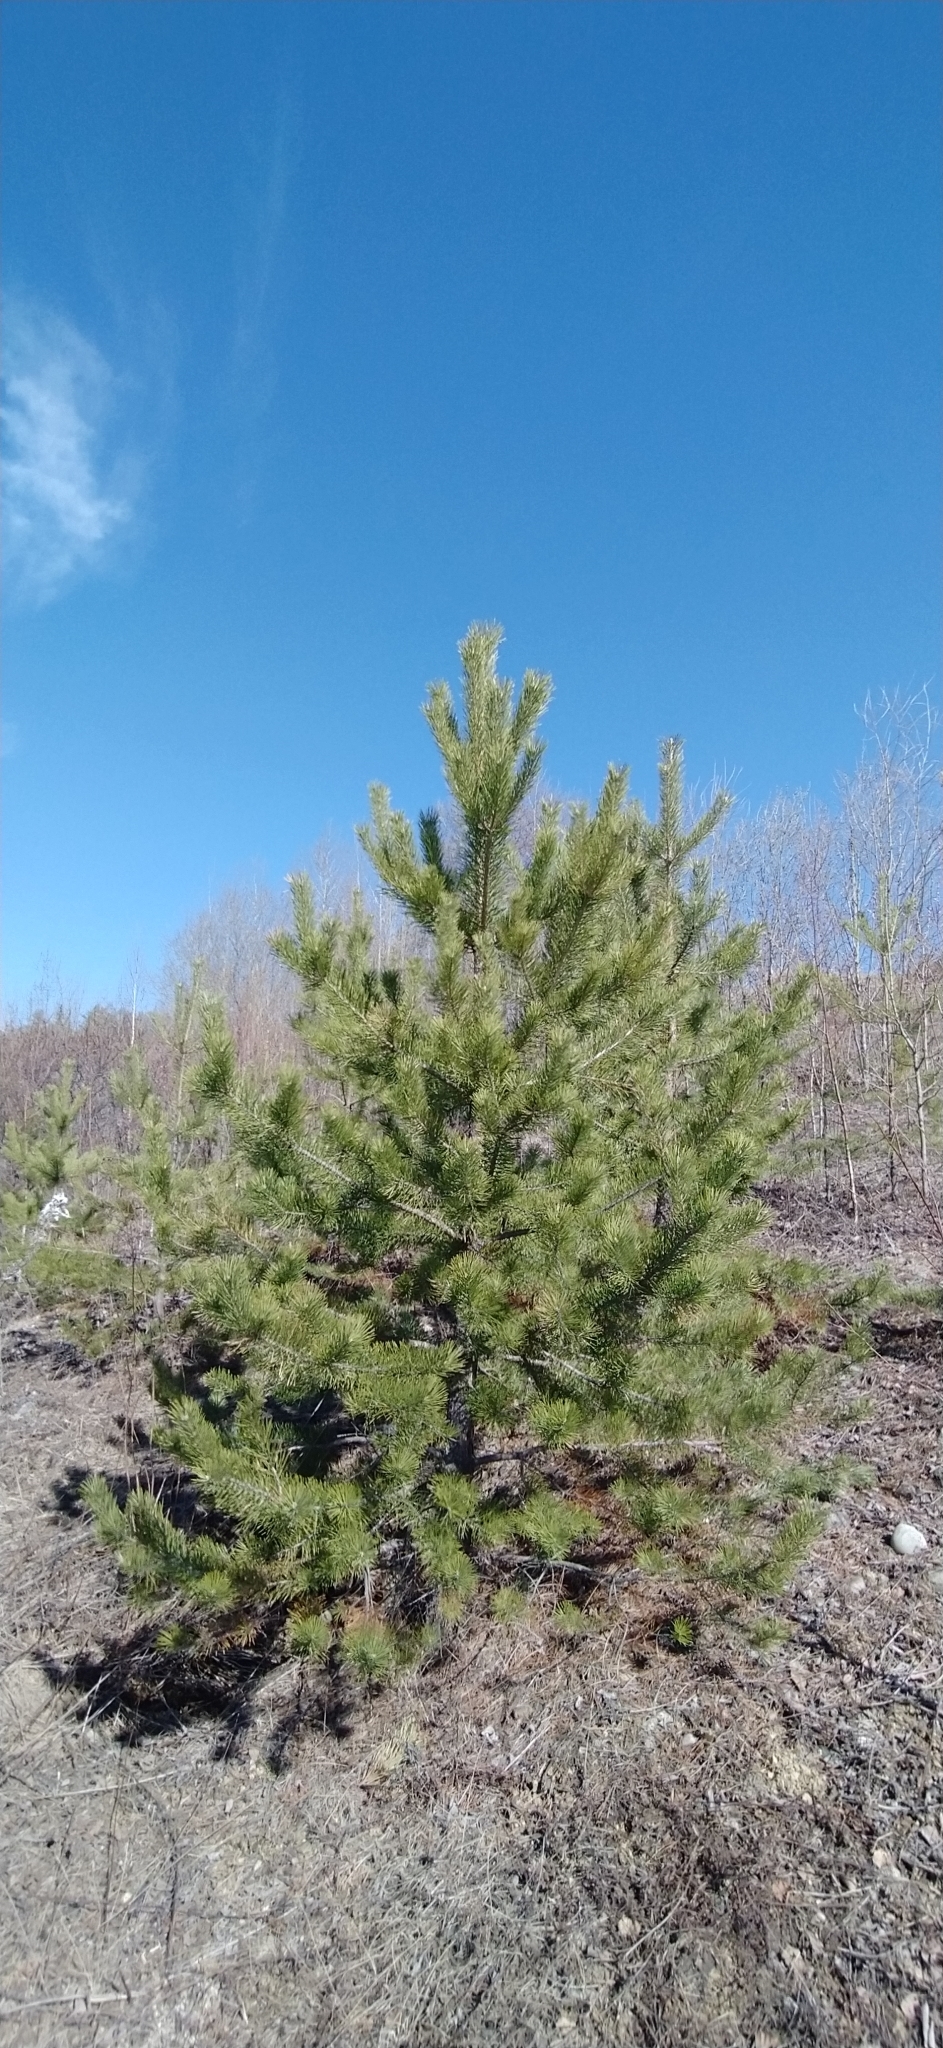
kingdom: Plantae
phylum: Tracheophyta
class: Pinopsida
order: Pinales
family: Pinaceae
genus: Pinus
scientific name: Pinus sylvestris
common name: Scots pine
